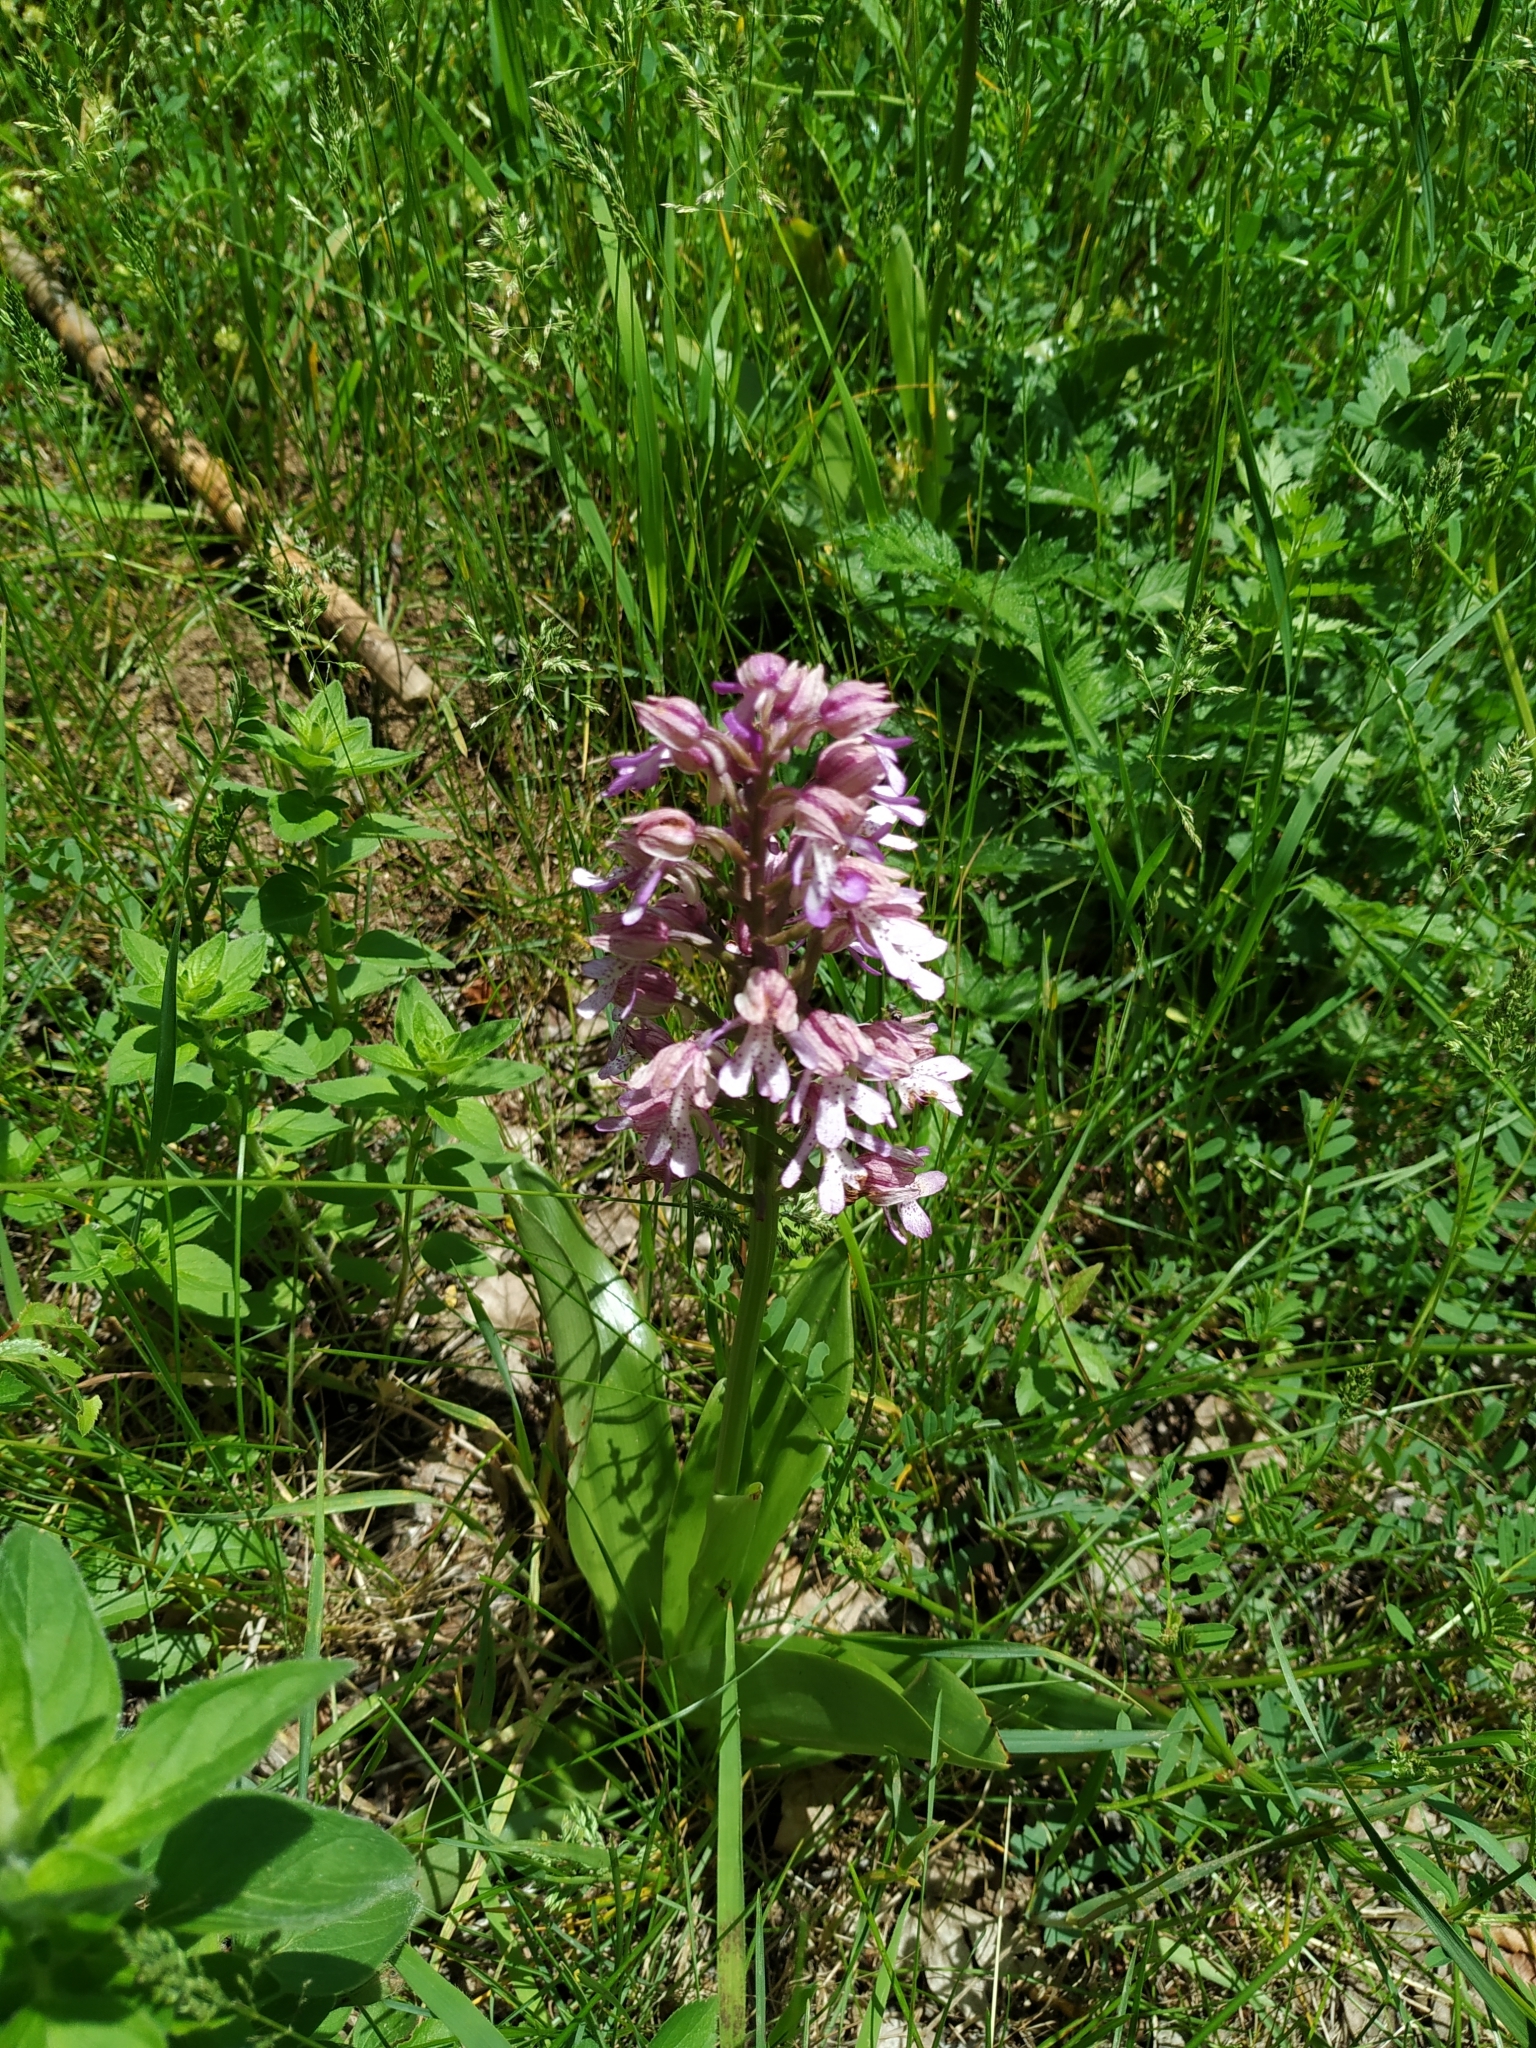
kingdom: Plantae
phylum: Tracheophyta
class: Liliopsida
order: Asparagales
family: Orchidaceae
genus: Orchis
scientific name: Orchis hybrida
